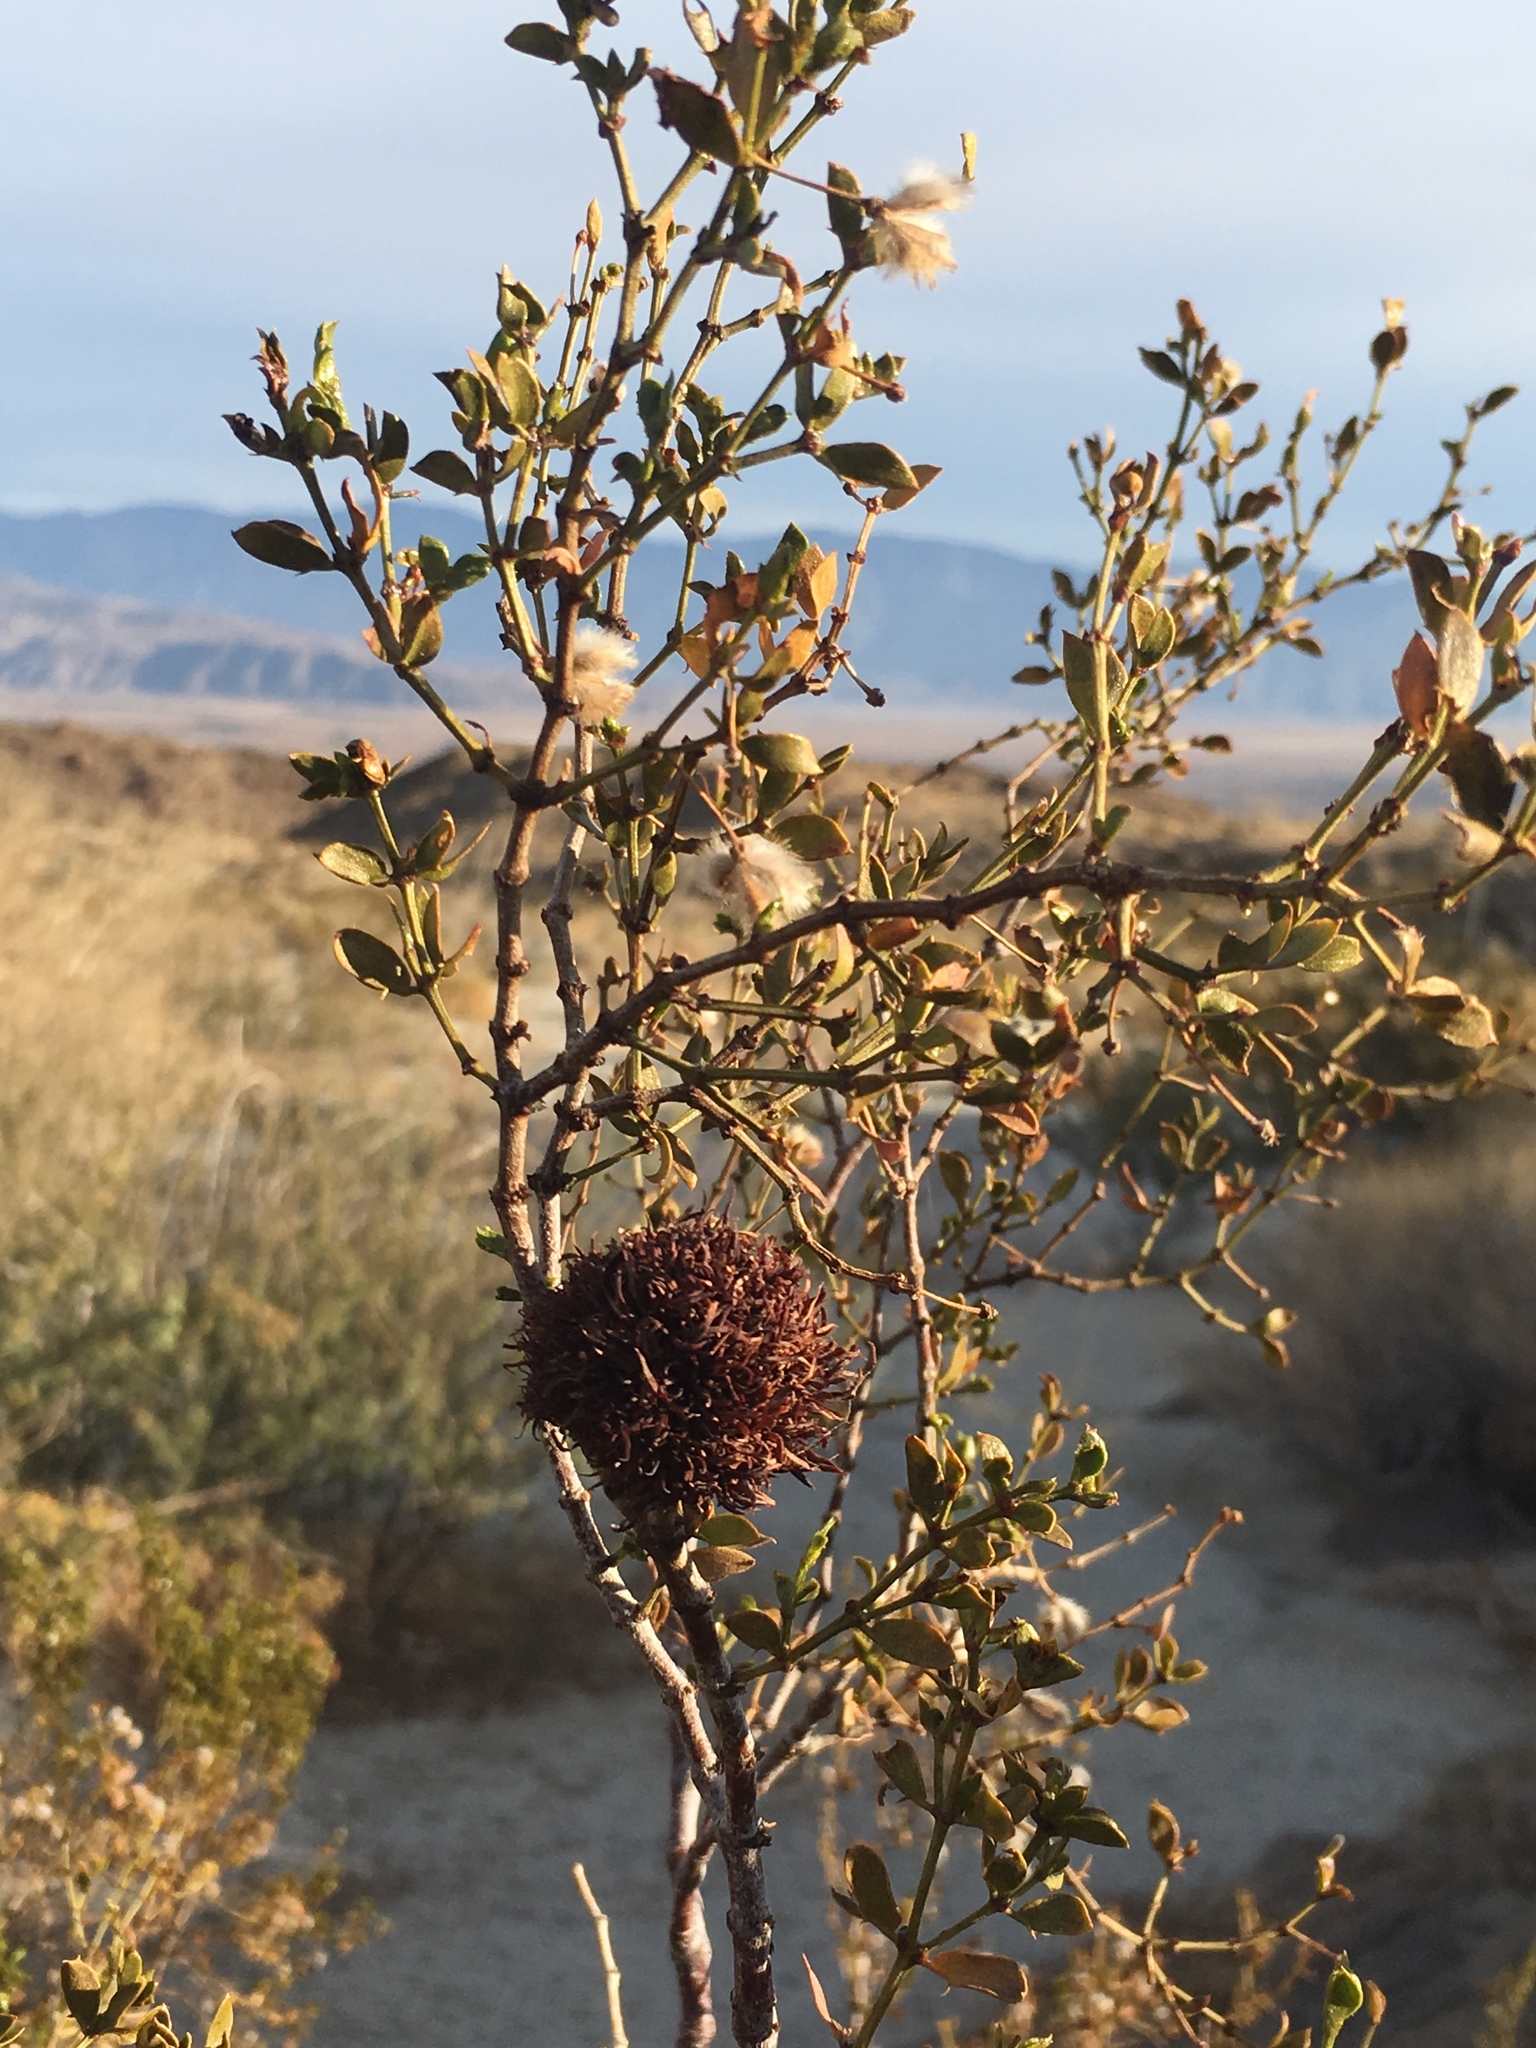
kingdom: Animalia
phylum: Arthropoda
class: Insecta
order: Diptera
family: Cecidomyiidae
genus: Asphondylia
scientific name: Asphondylia auripila
